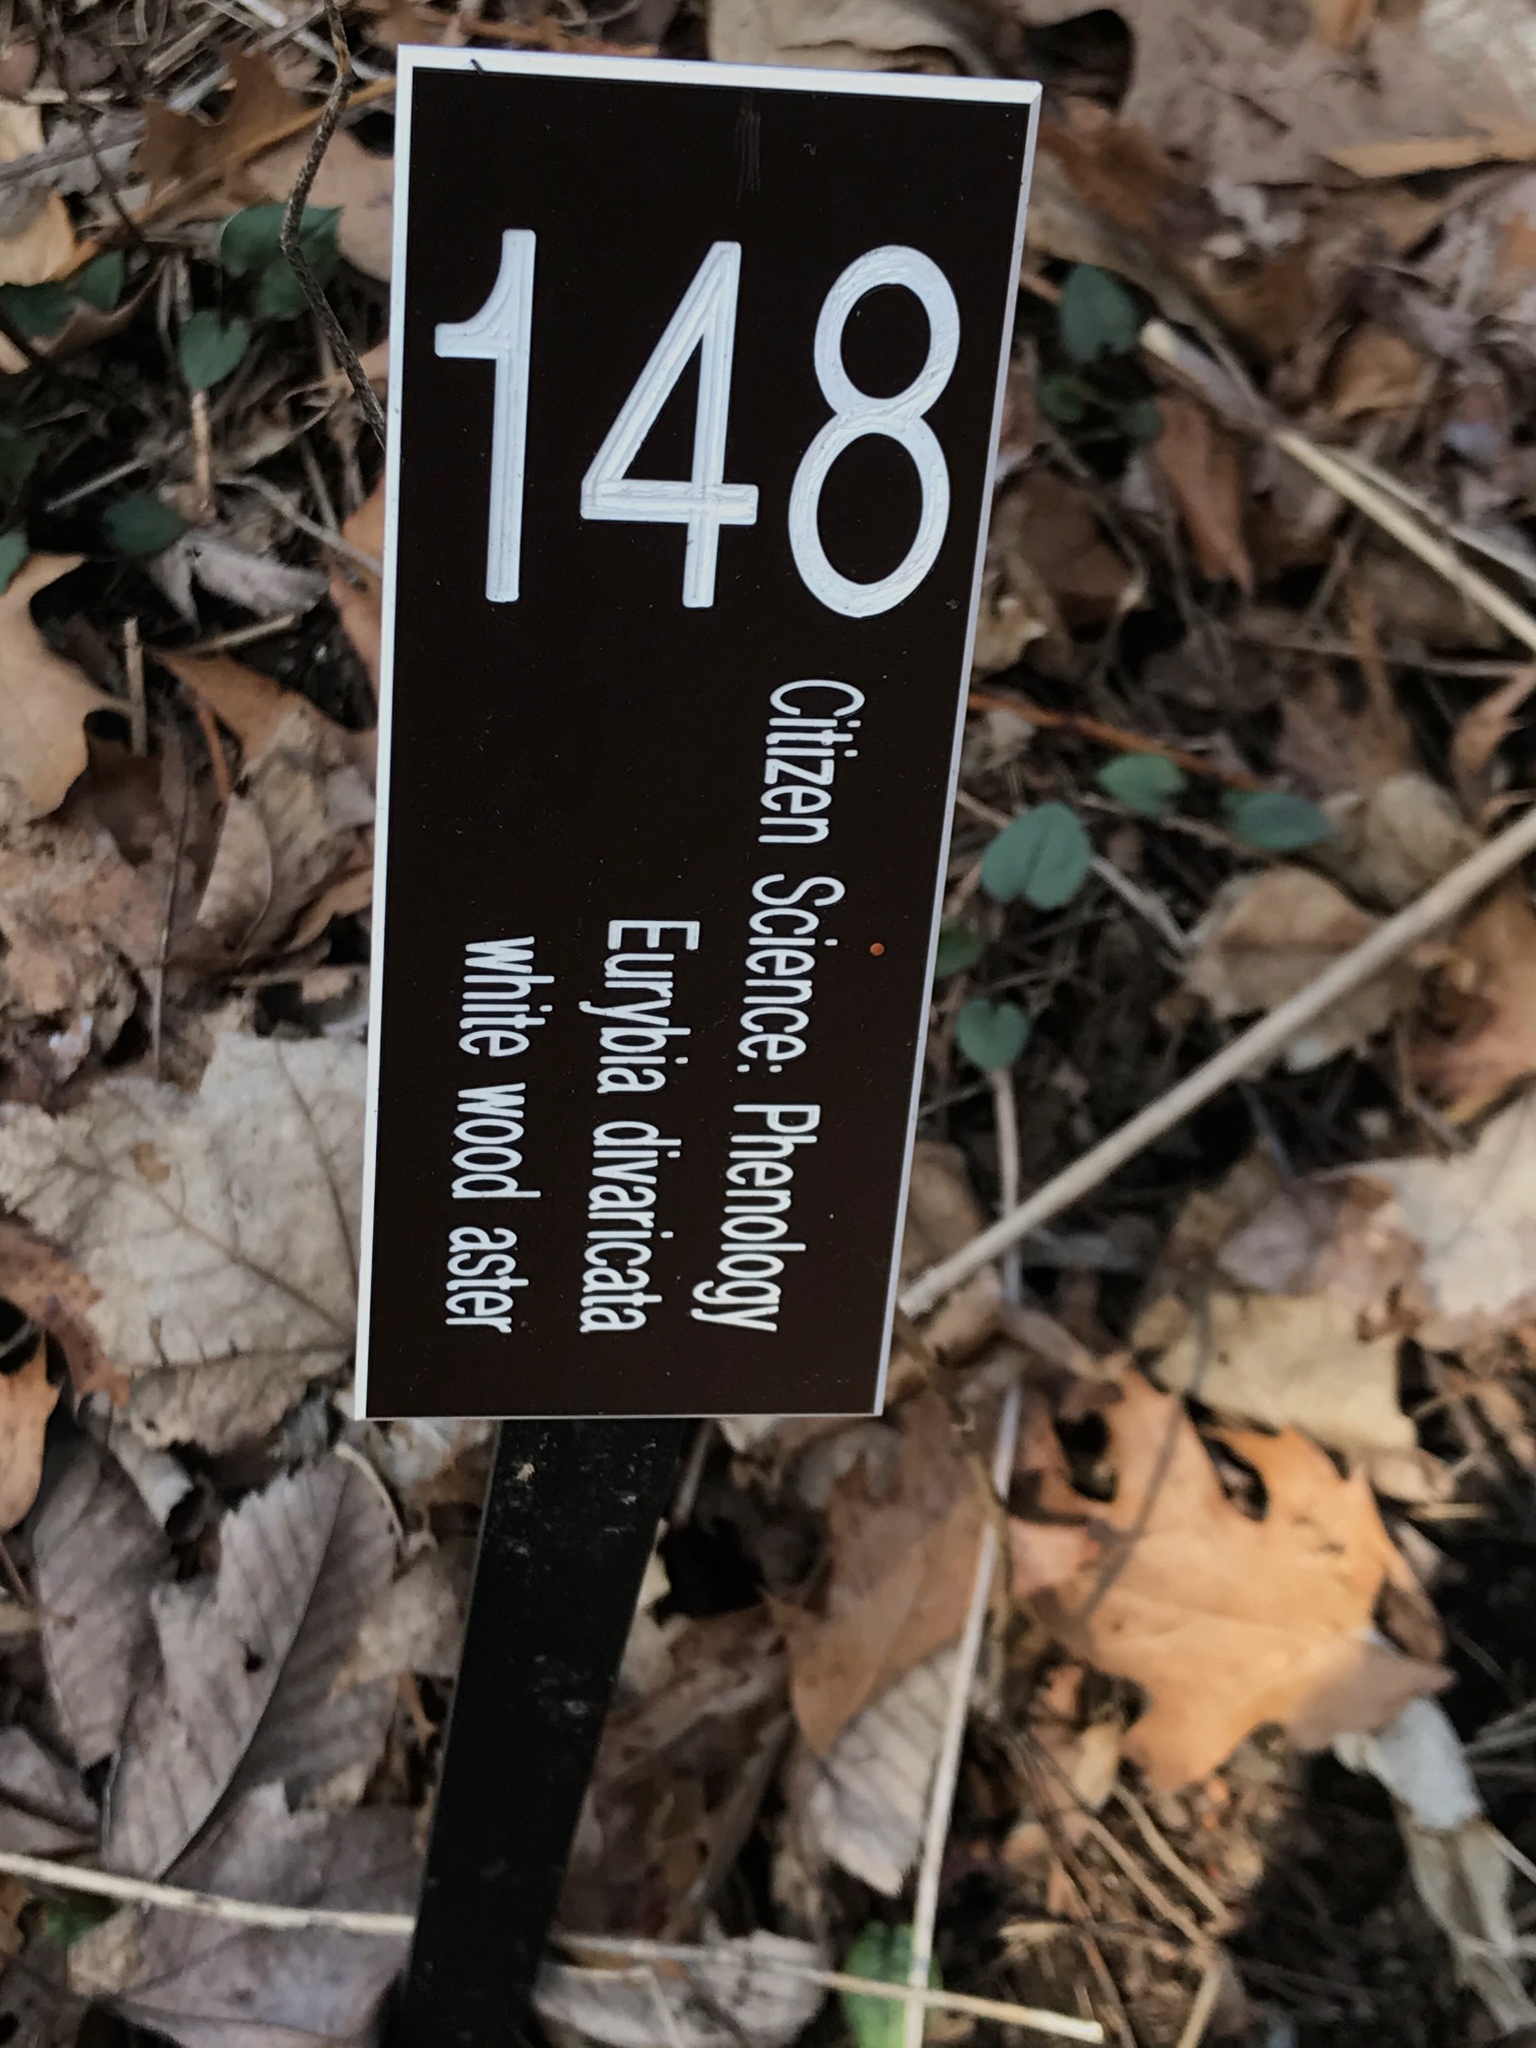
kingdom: Plantae
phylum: Tracheophyta
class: Magnoliopsida
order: Asterales
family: Asteraceae
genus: Eurybia
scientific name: Eurybia divaricata
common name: White wood aster
